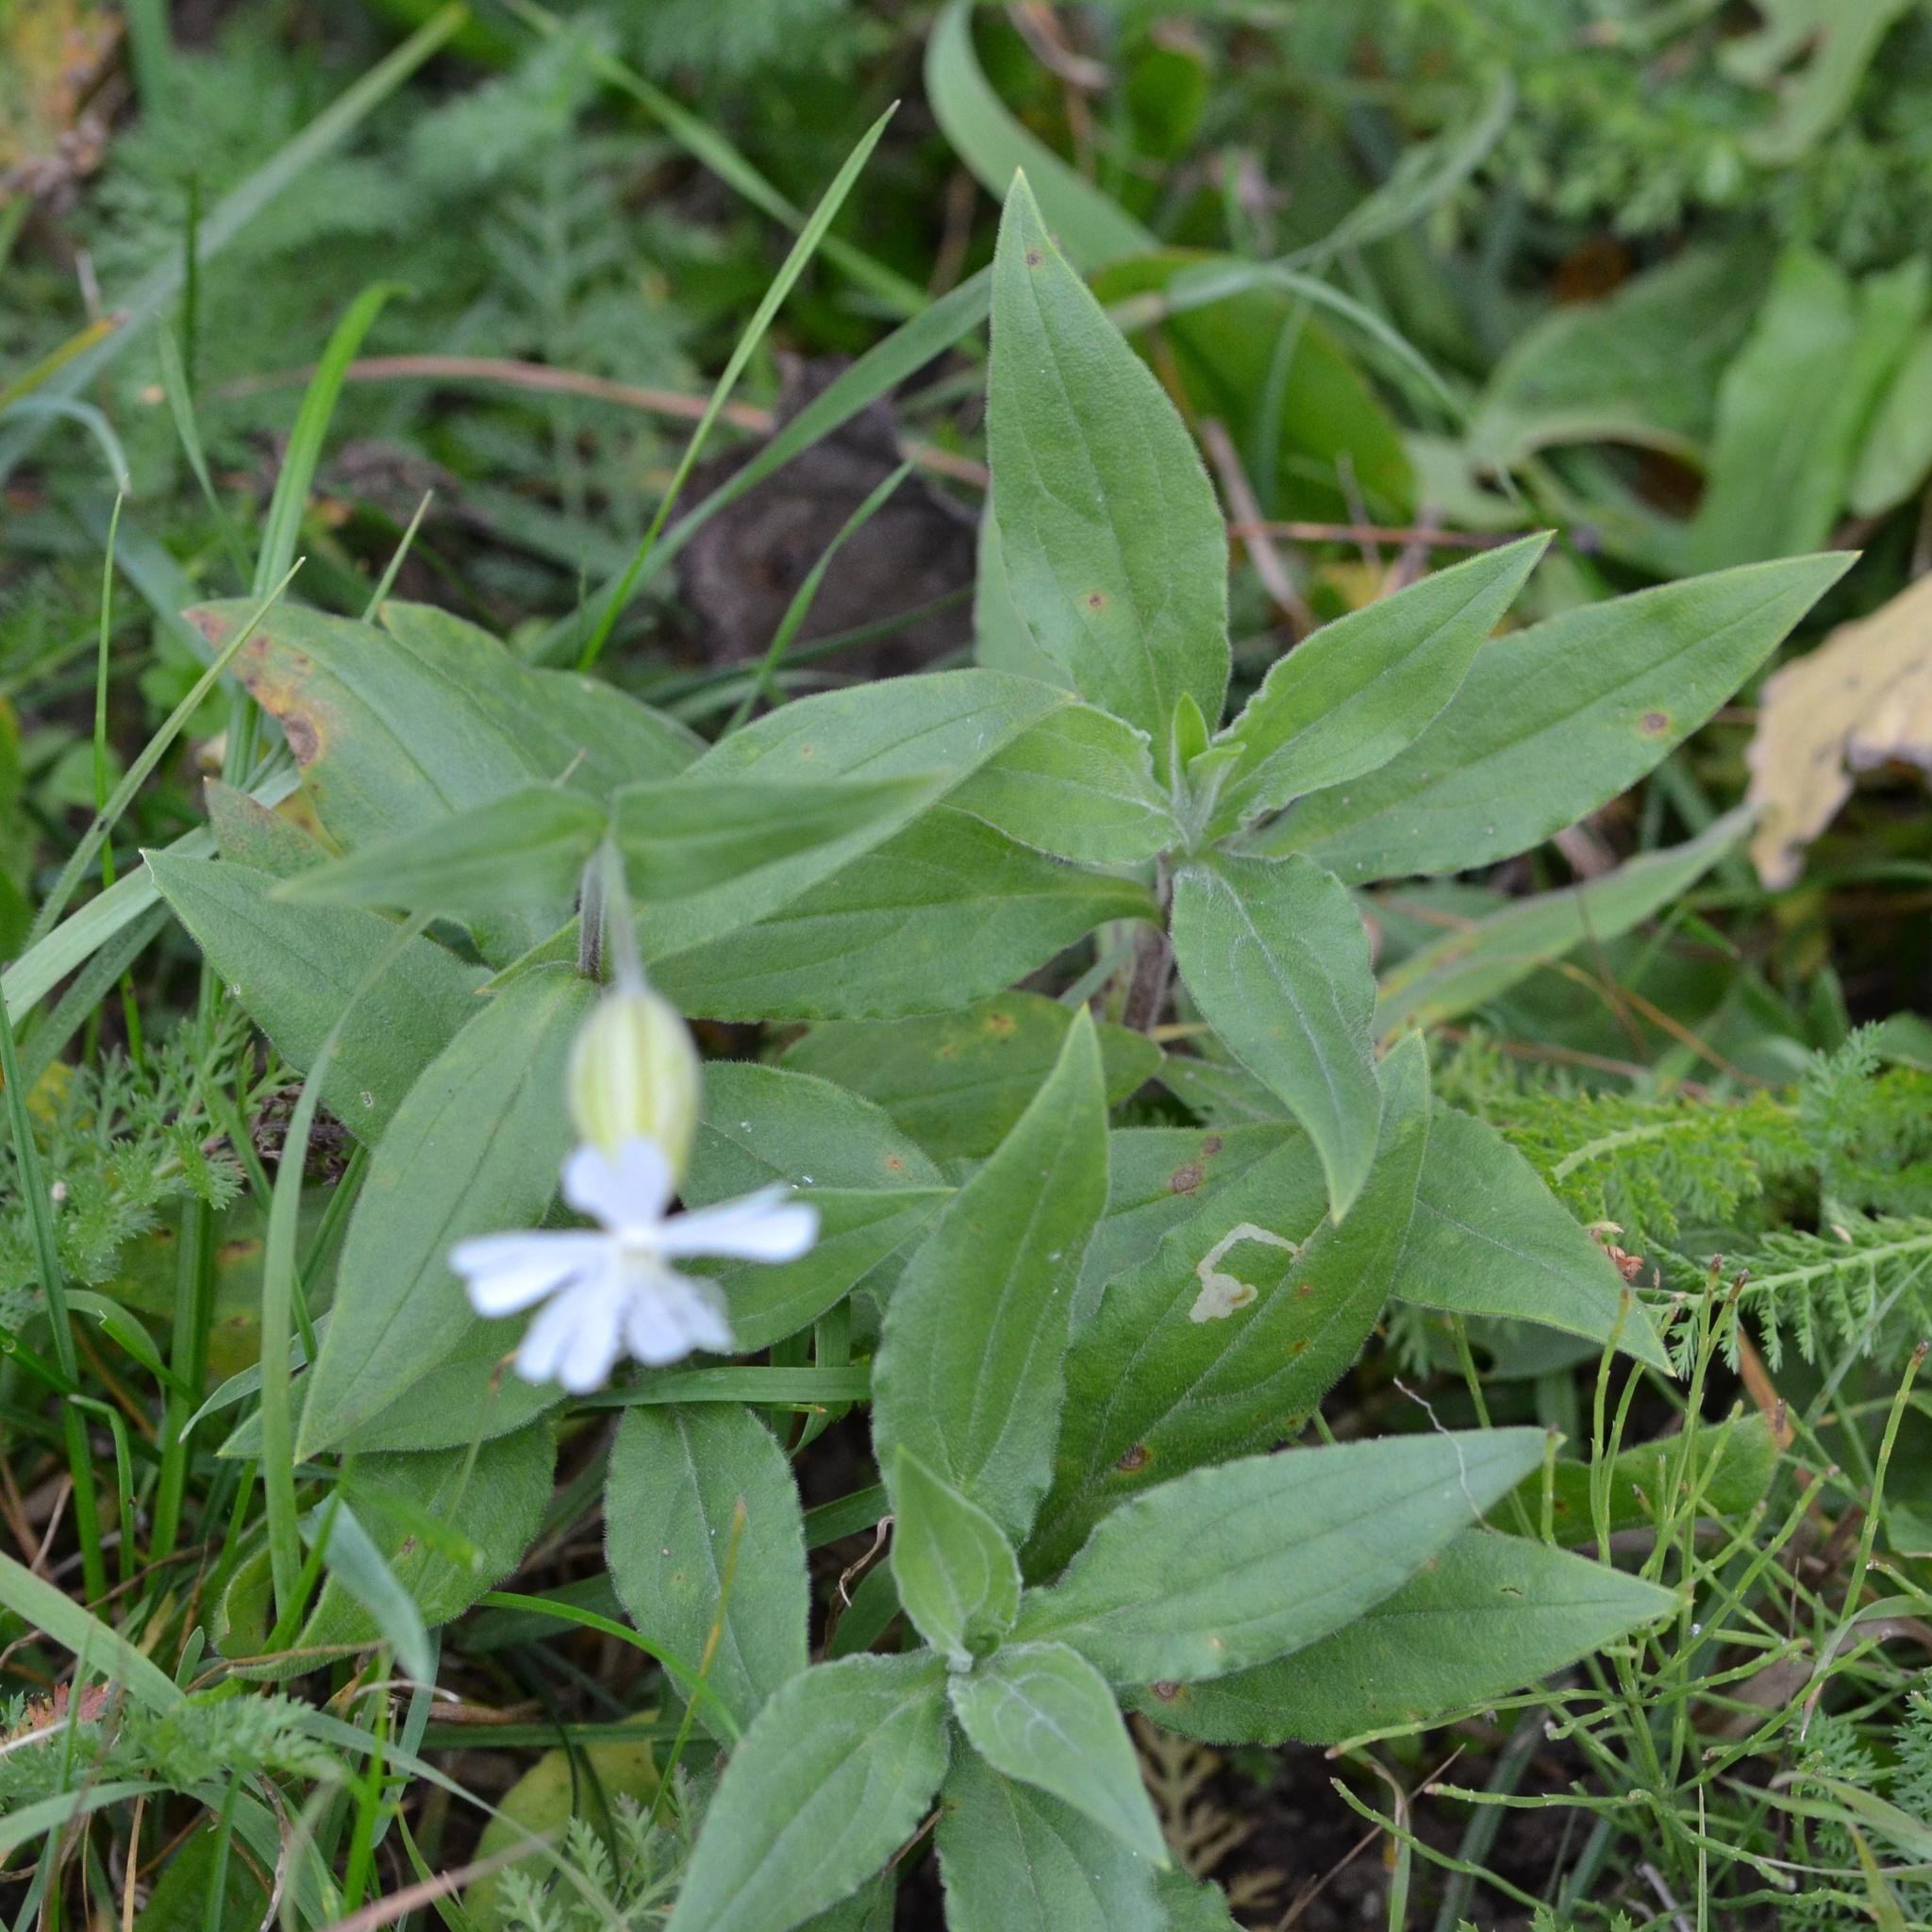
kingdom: Plantae
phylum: Tracheophyta
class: Magnoliopsida
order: Caryophyllales
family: Caryophyllaceae
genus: Silene
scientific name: Silene latifolia
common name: White campion
